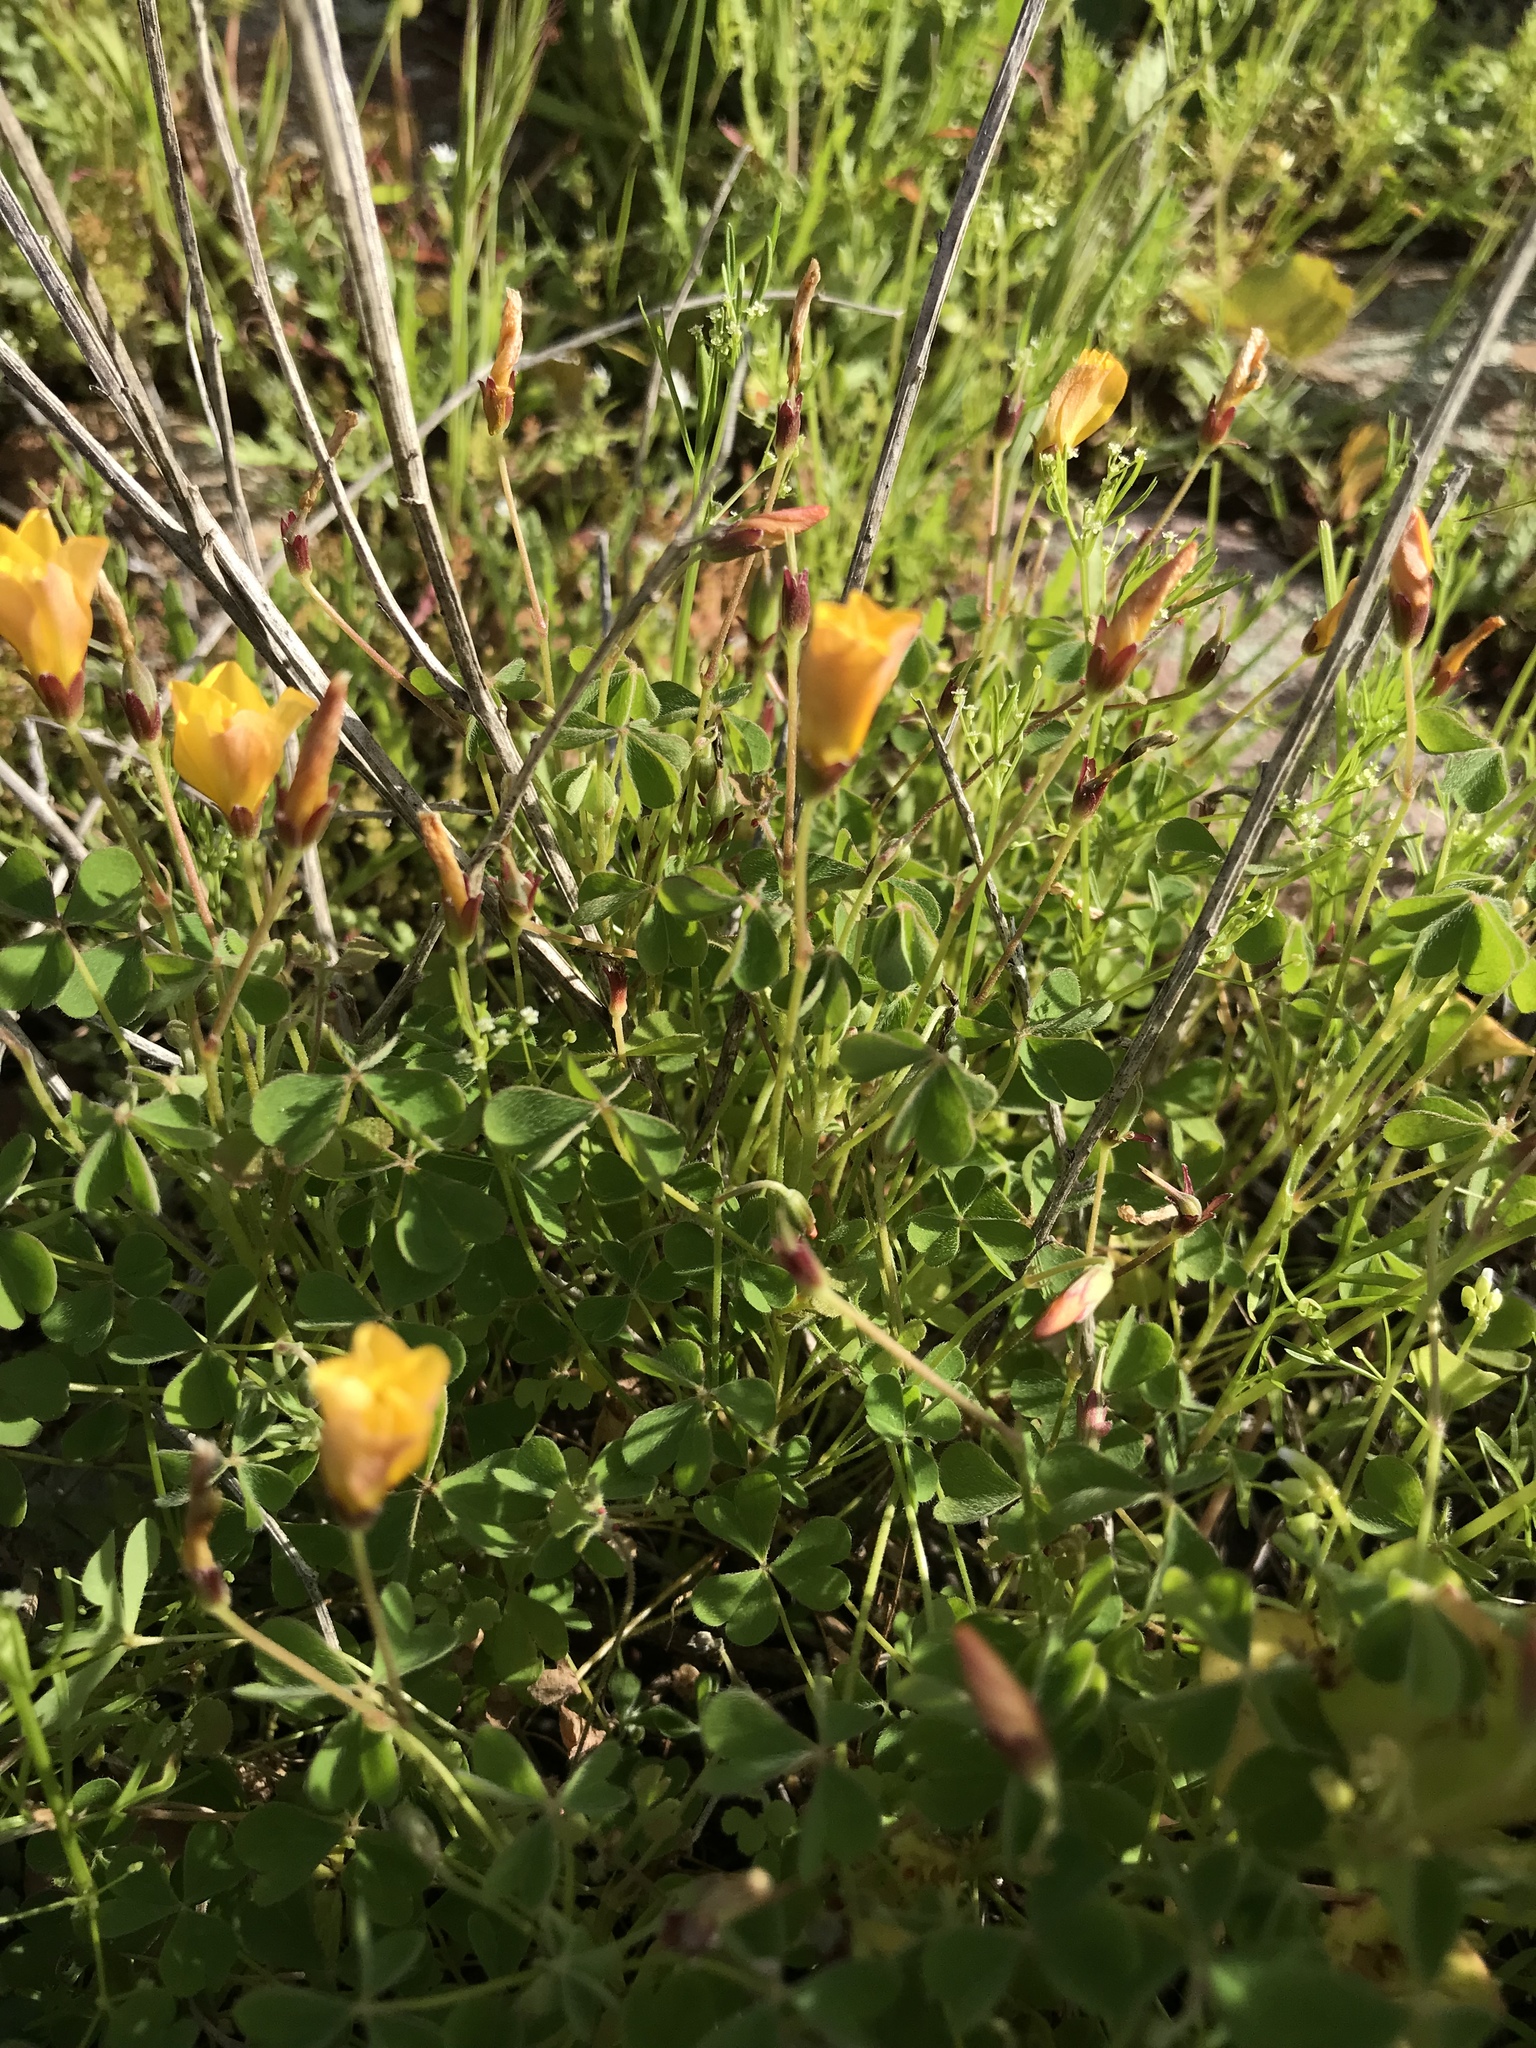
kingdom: Plantae
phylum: Tracheophyta
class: Magnoliopsida
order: Oxalidales
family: Oxalidaceae
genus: Oxalis
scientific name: Oxalis californica
